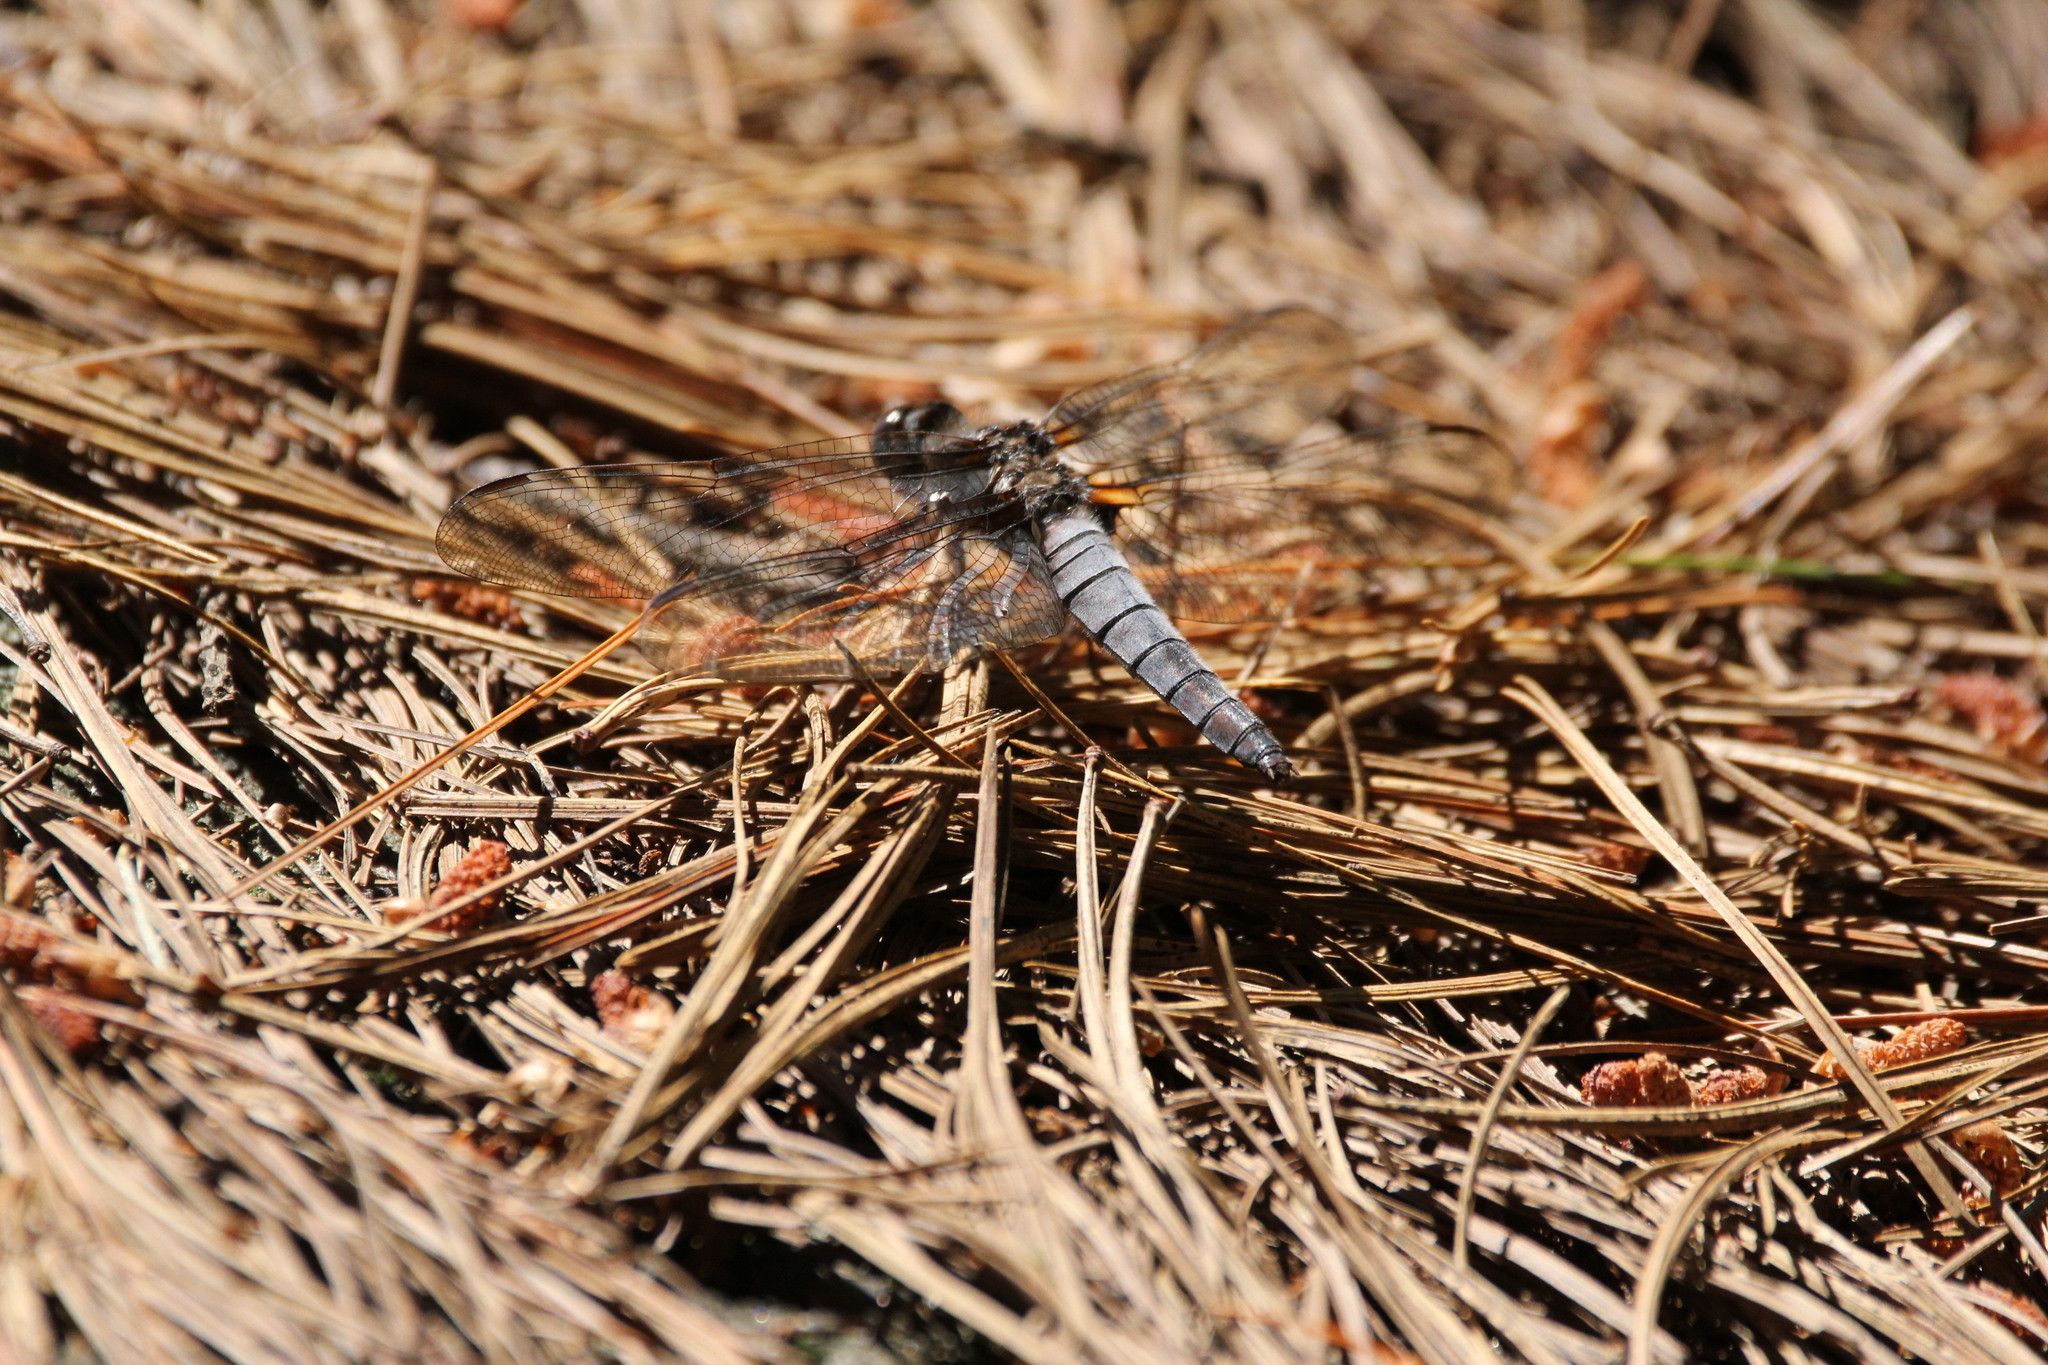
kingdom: Animalia
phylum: Arthropoda
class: Insecta
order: Odonata
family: Libellulidae
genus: Ladona
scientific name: Ladona julia
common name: Chalk-fronted corporal
